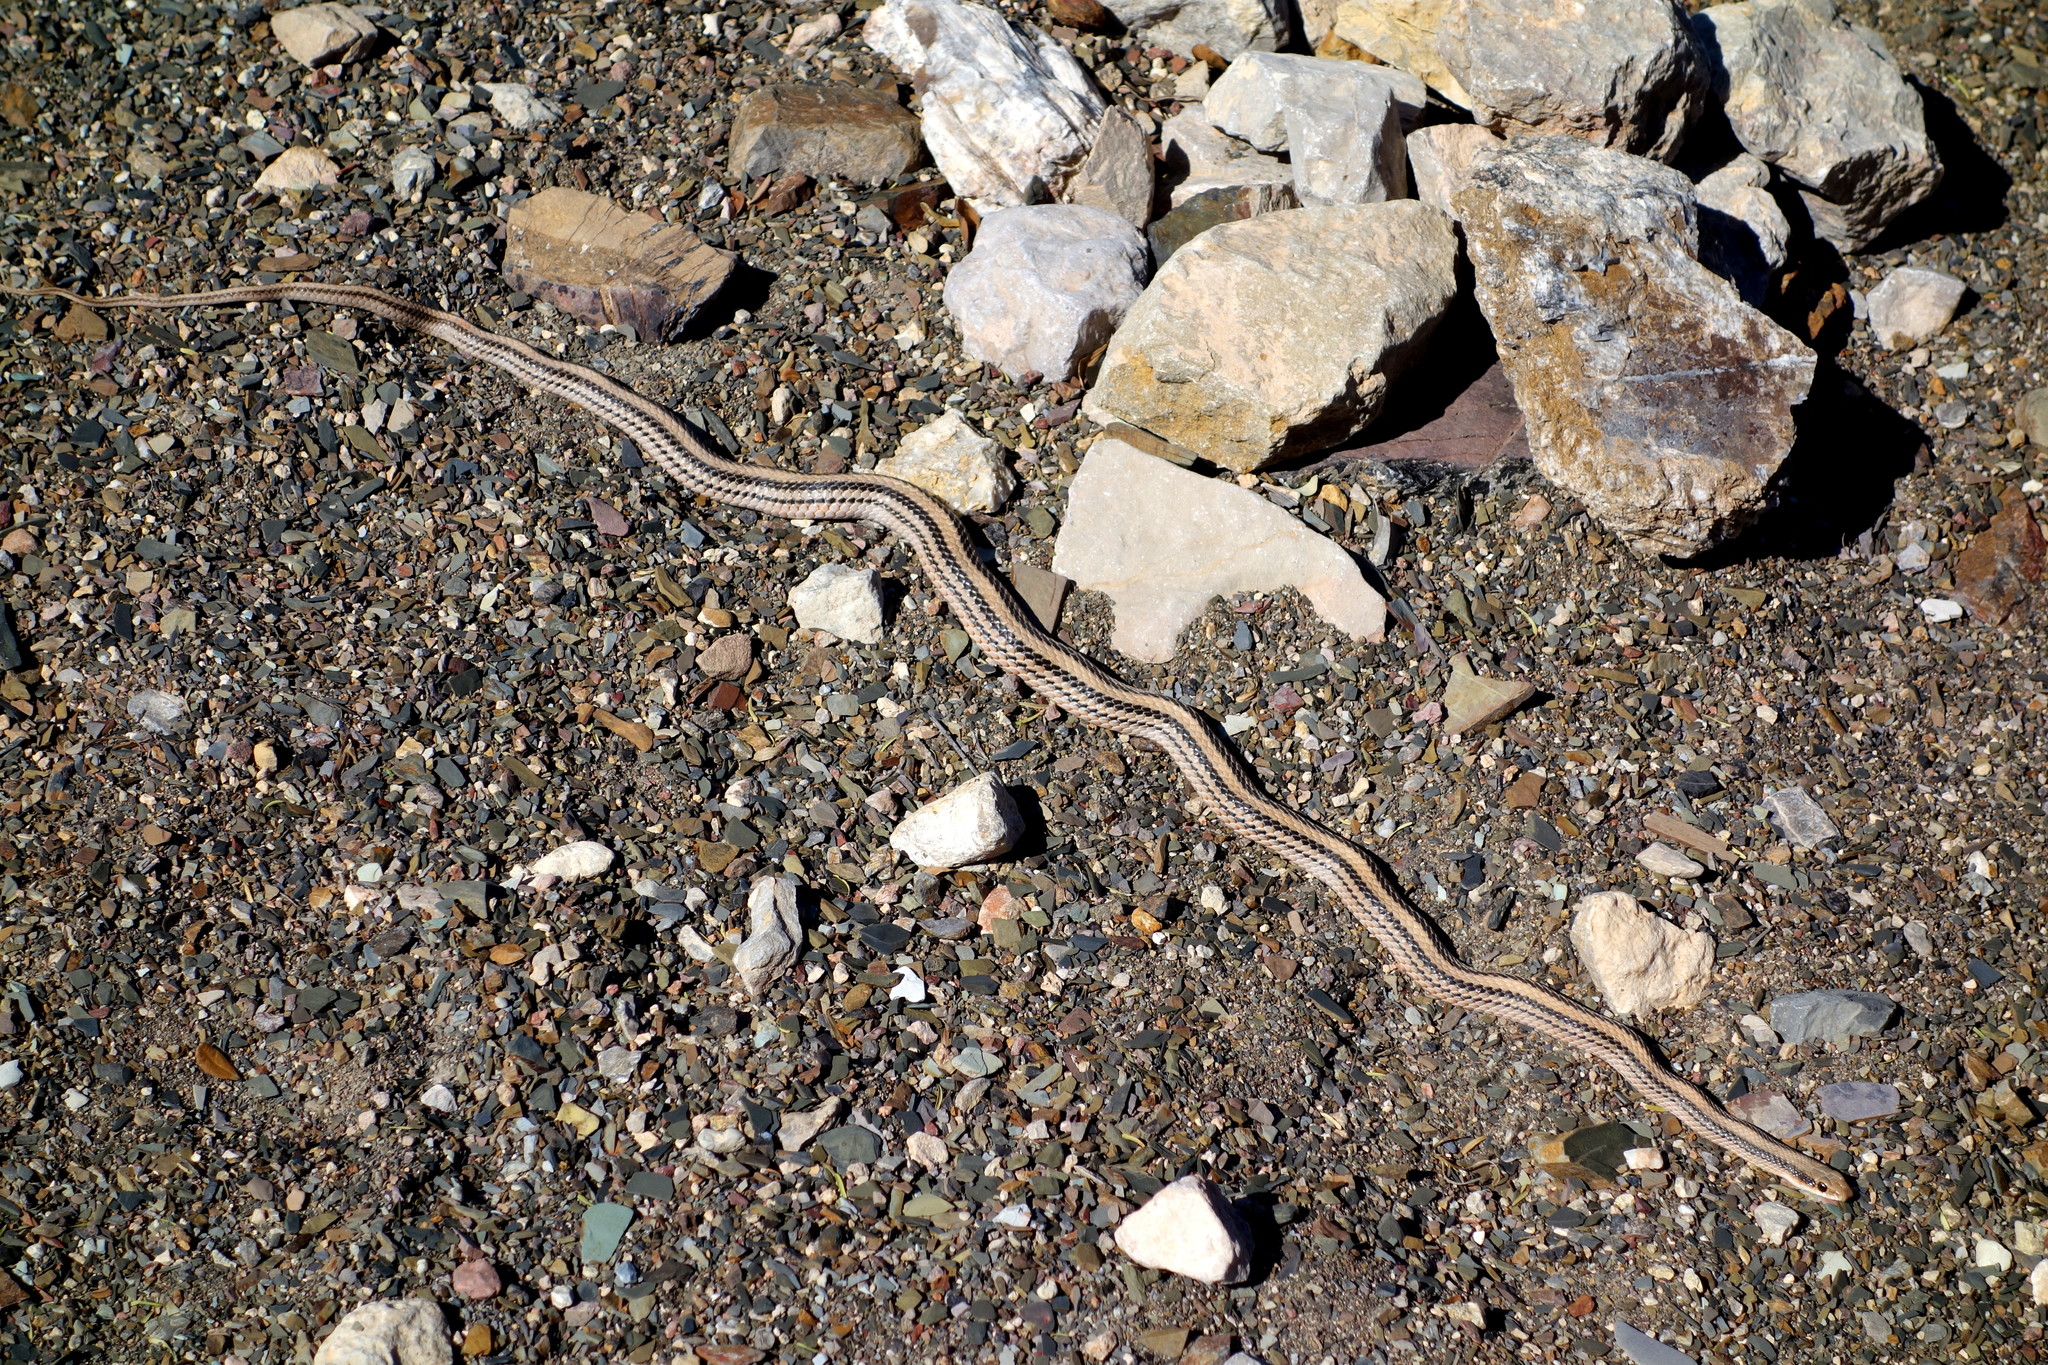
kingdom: Animalia
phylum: Chordata
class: Squamata
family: Colubridae
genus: Salvadora
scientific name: Salvadora deserticola
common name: Big bend patchnose snake
